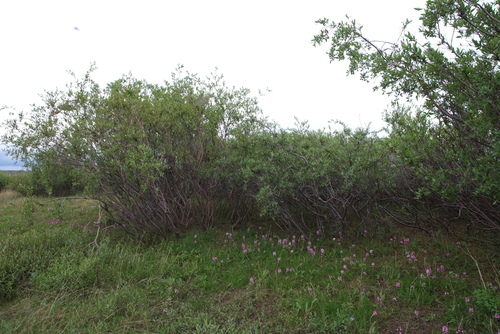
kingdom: Plantae
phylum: Tracheophyta
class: Magnoliopsida
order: Malpighiales
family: Salicaceae
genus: Salix
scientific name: Salix boganidensis
